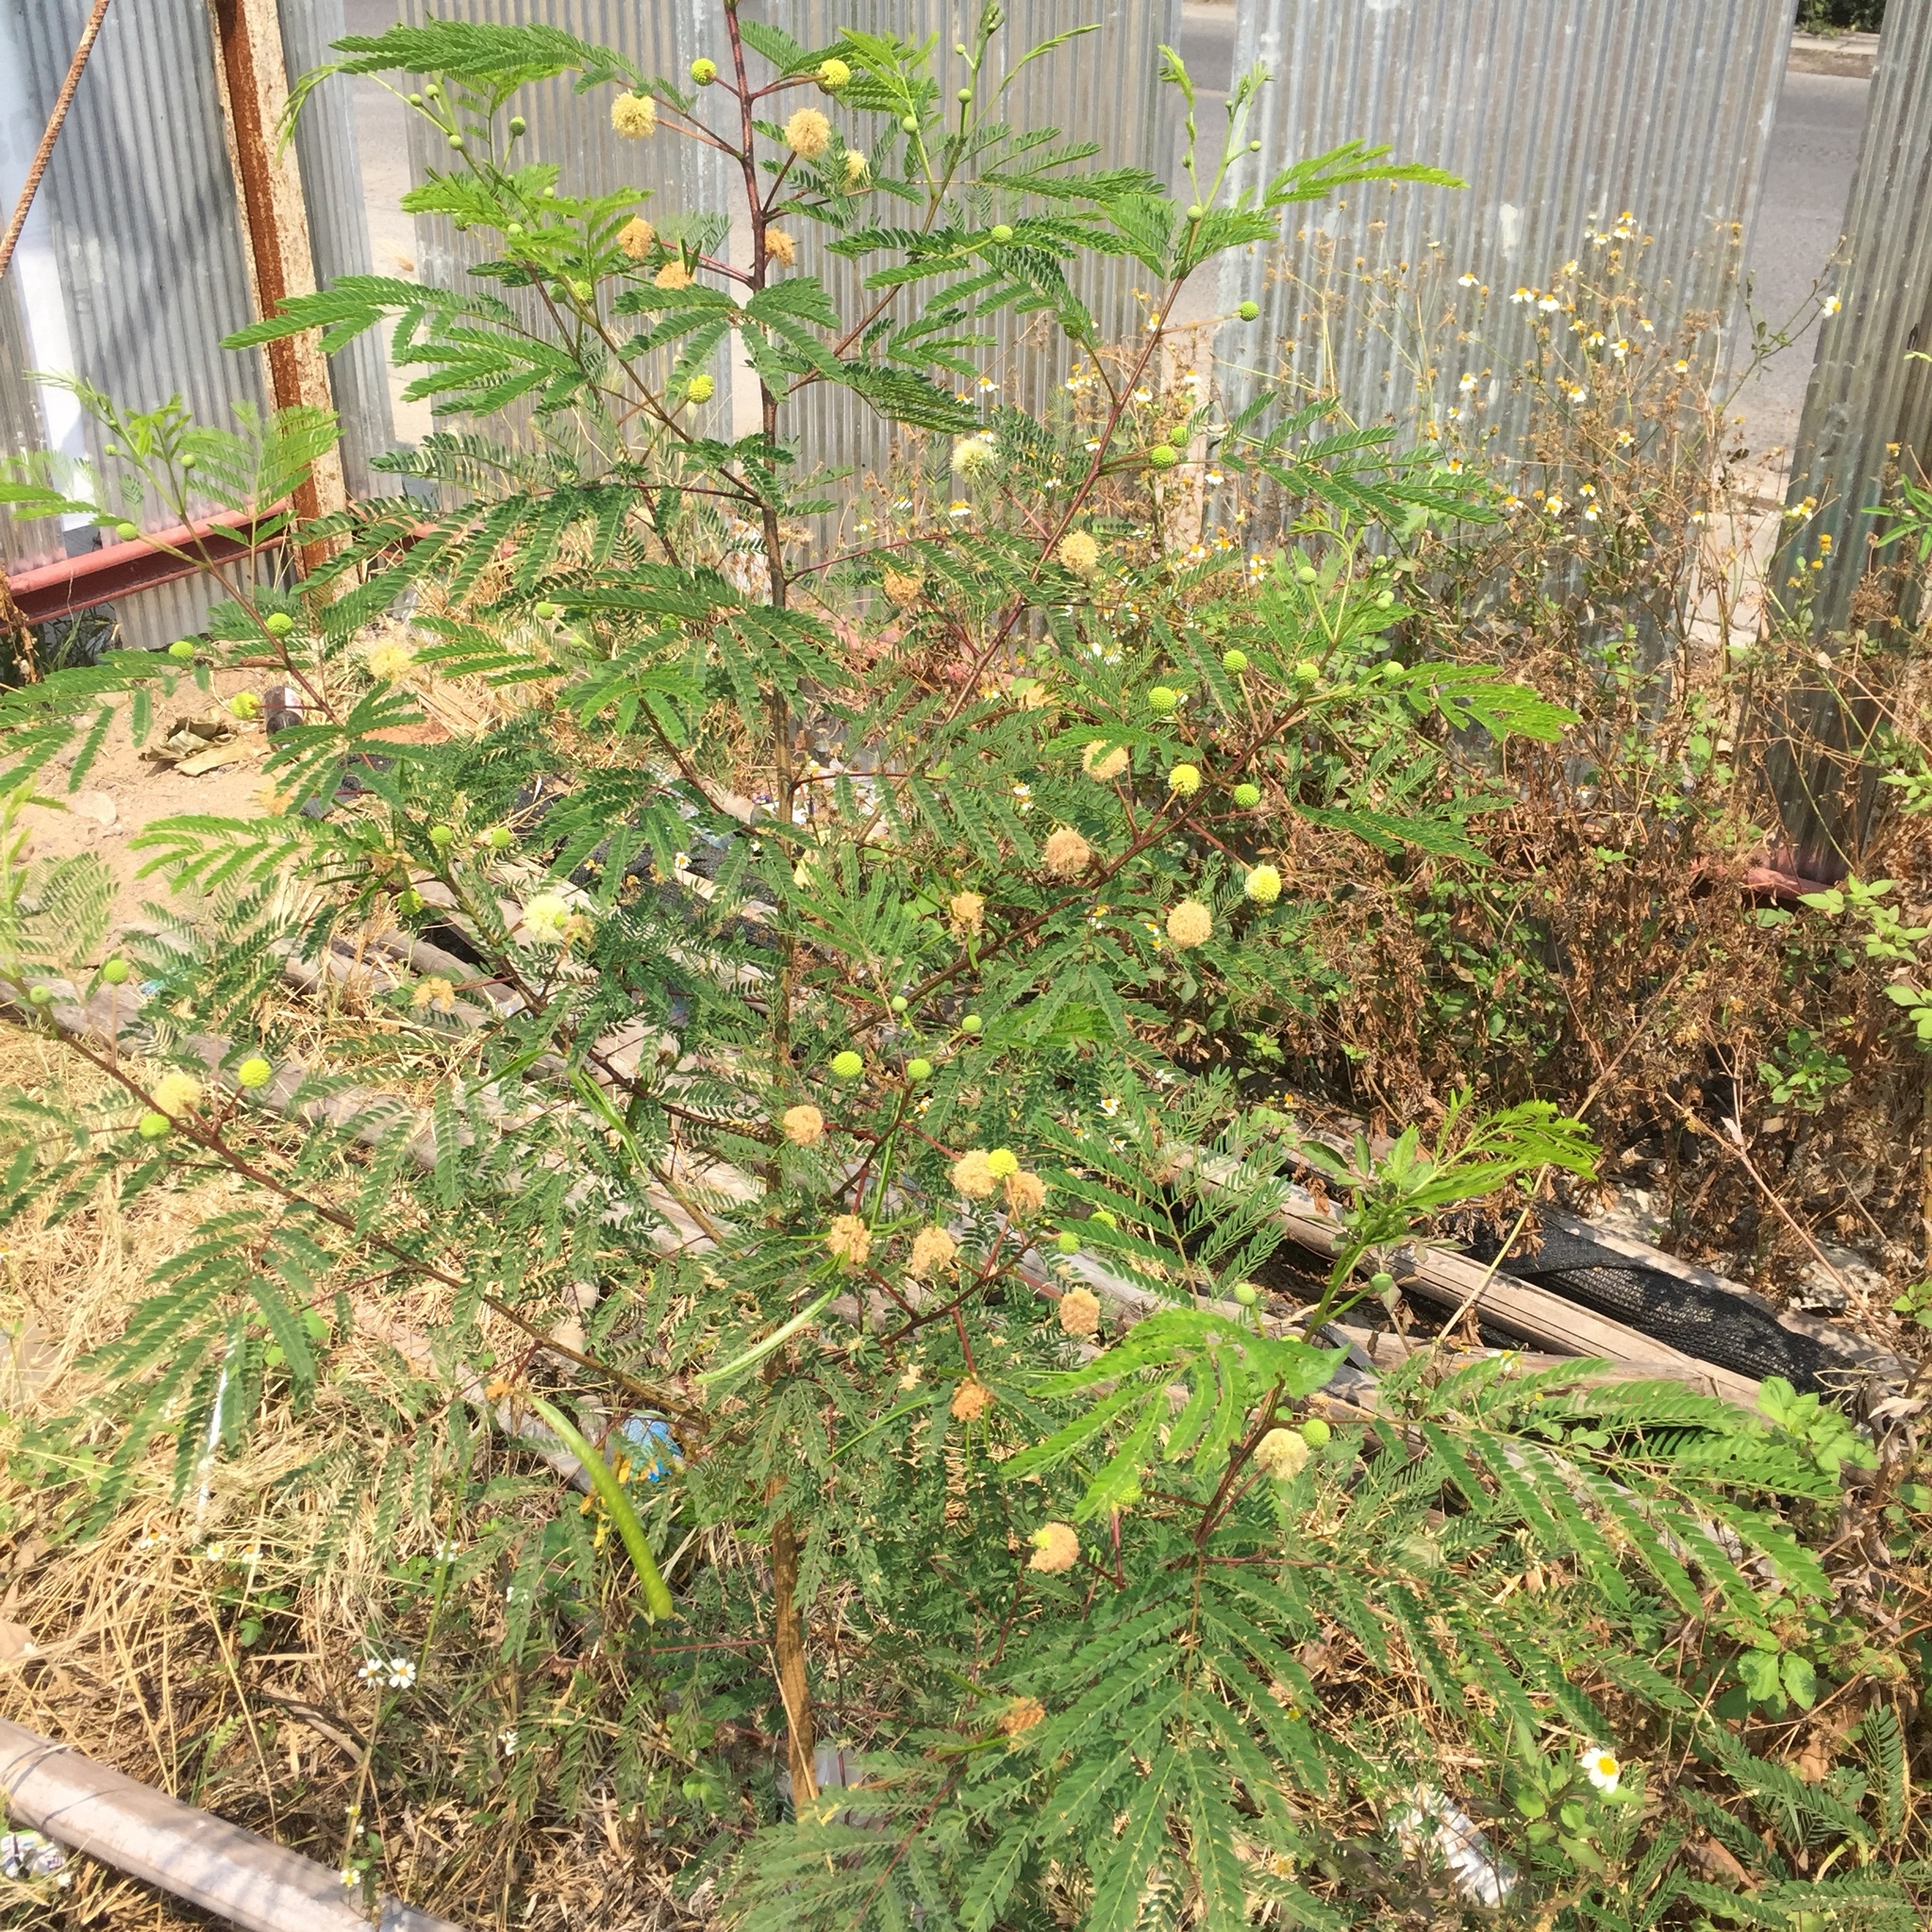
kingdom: Plantae
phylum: Tracheophyta
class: Magnoliopsida
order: Fabales
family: Fabaceae
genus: Leucaena
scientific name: Leucaena leucocephala
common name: White leadtree
